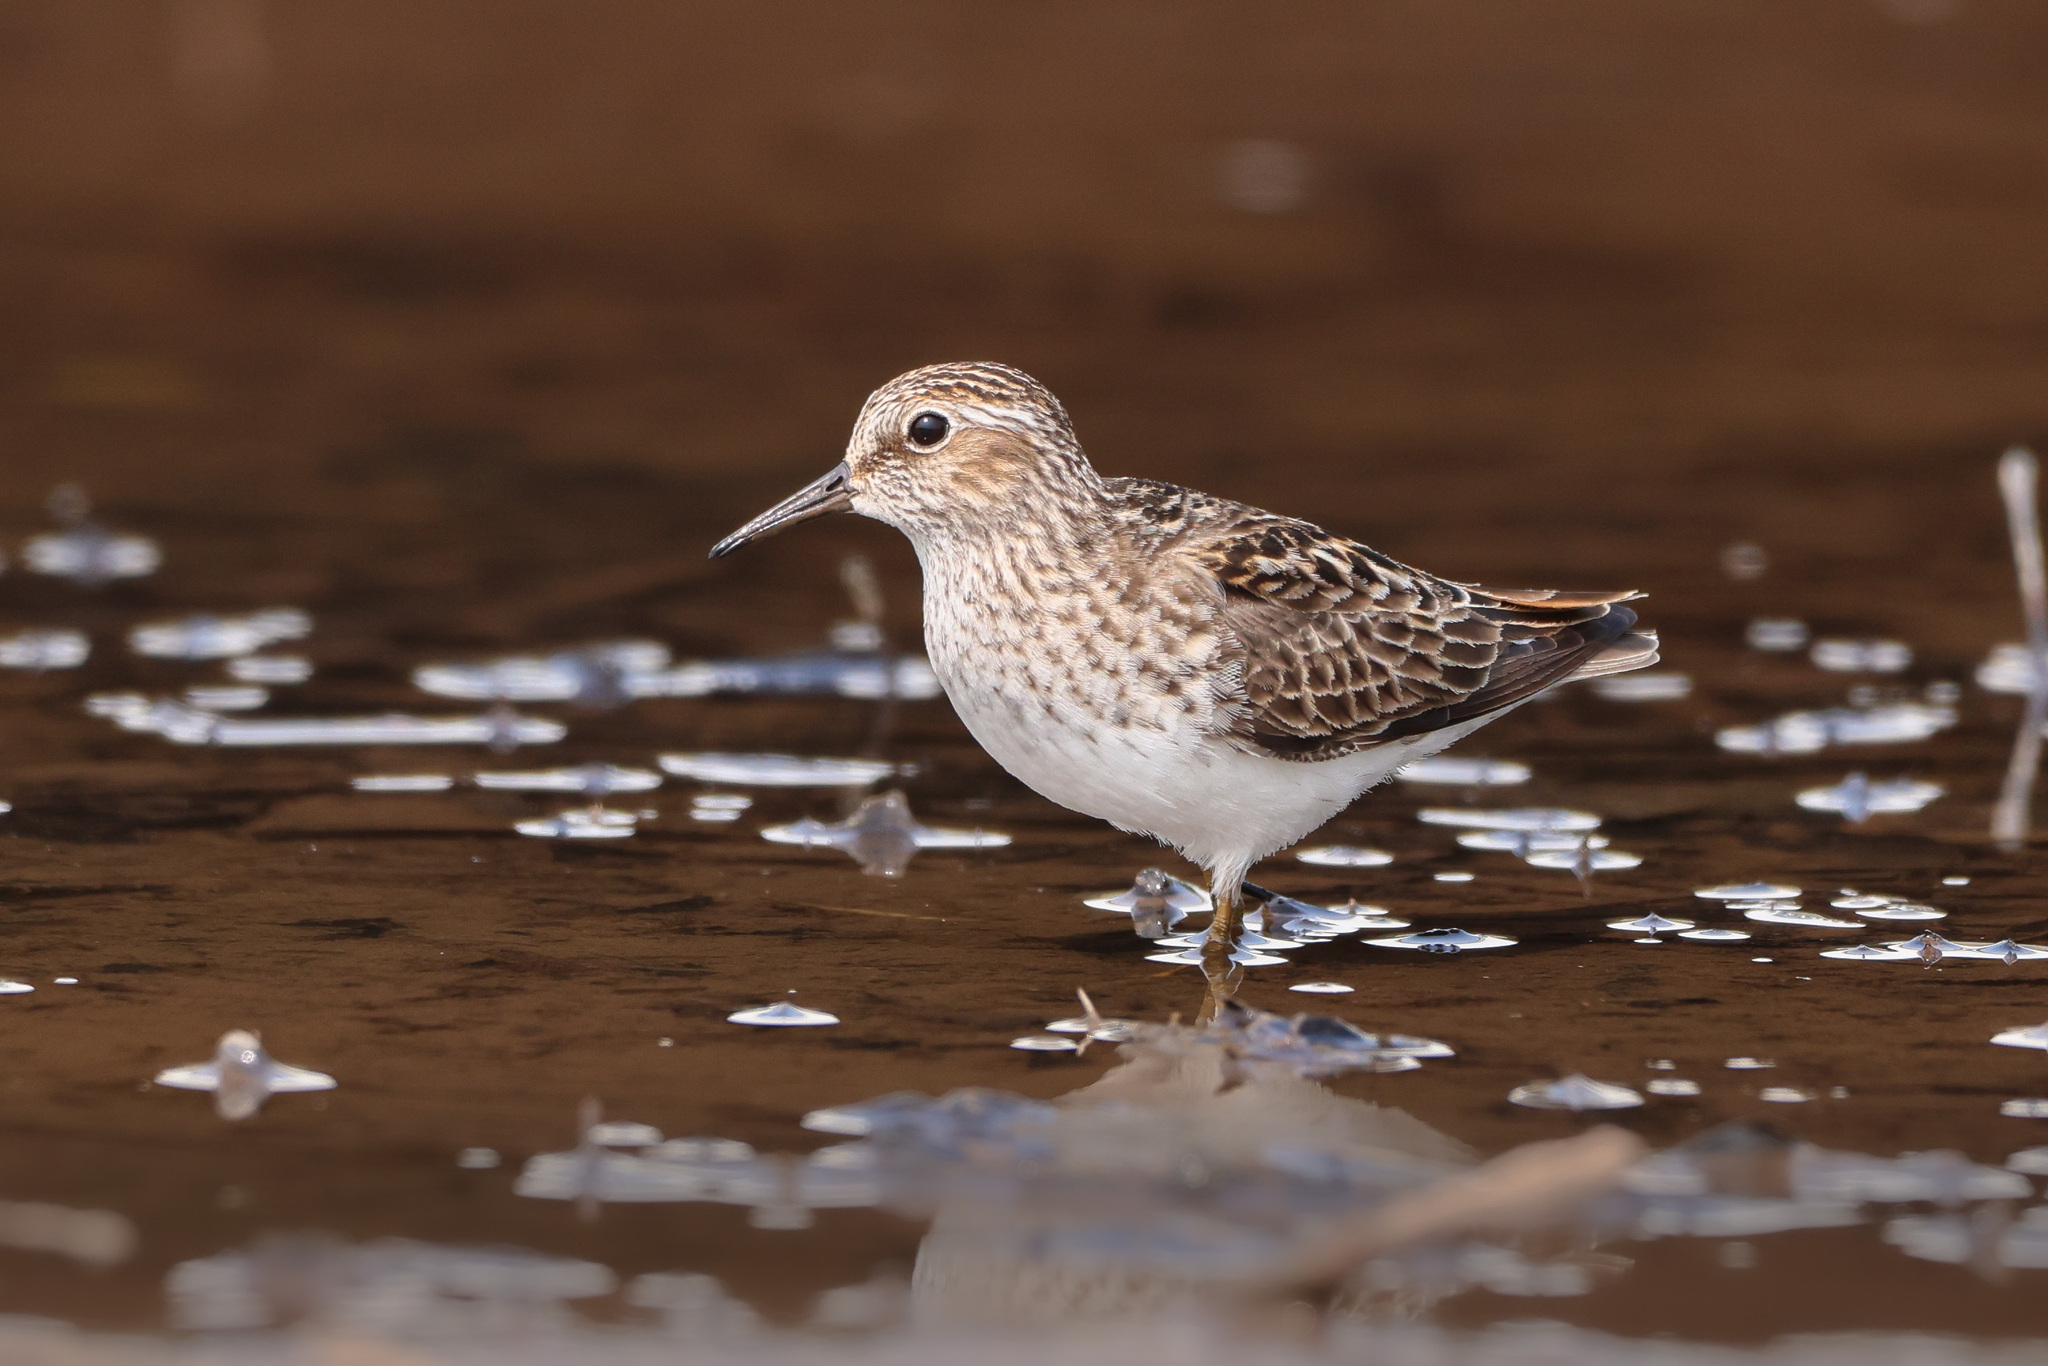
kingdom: Animalia
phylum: Chordata
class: Aves
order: Charadriiformes
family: Scolopacidae
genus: Calidris
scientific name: Calidris minutilla
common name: Least sandpiper
